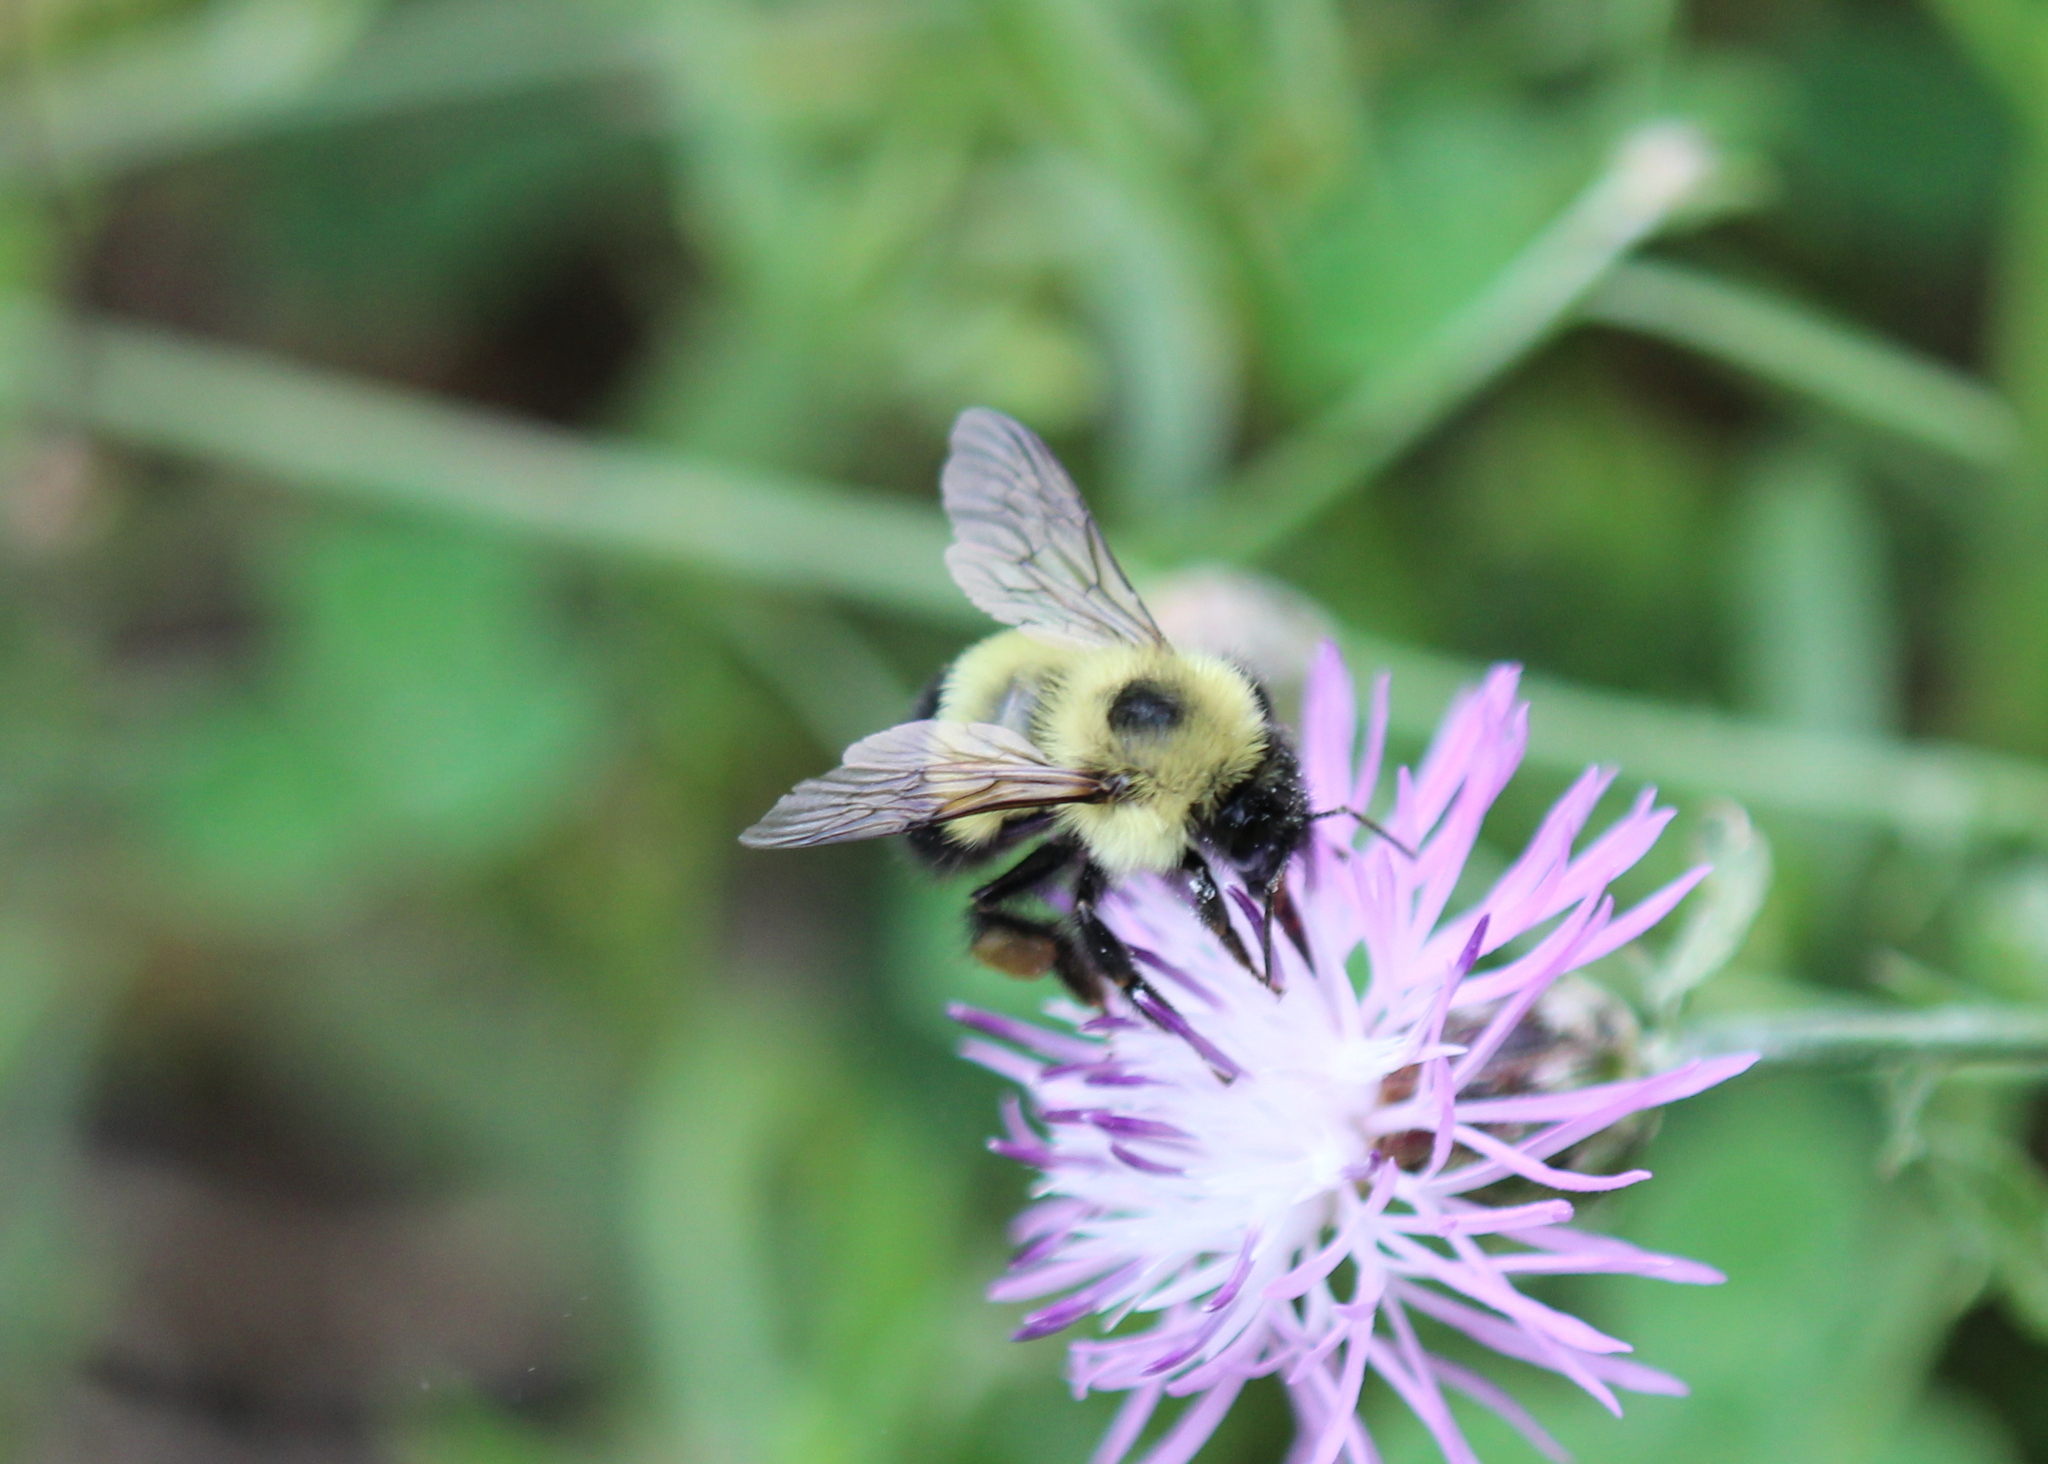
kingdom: Animalia
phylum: Arthropoda
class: Insecta
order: Hymenoptera
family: Apidae
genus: Bombus
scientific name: Bombus vagans
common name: Half-black bumble bee
